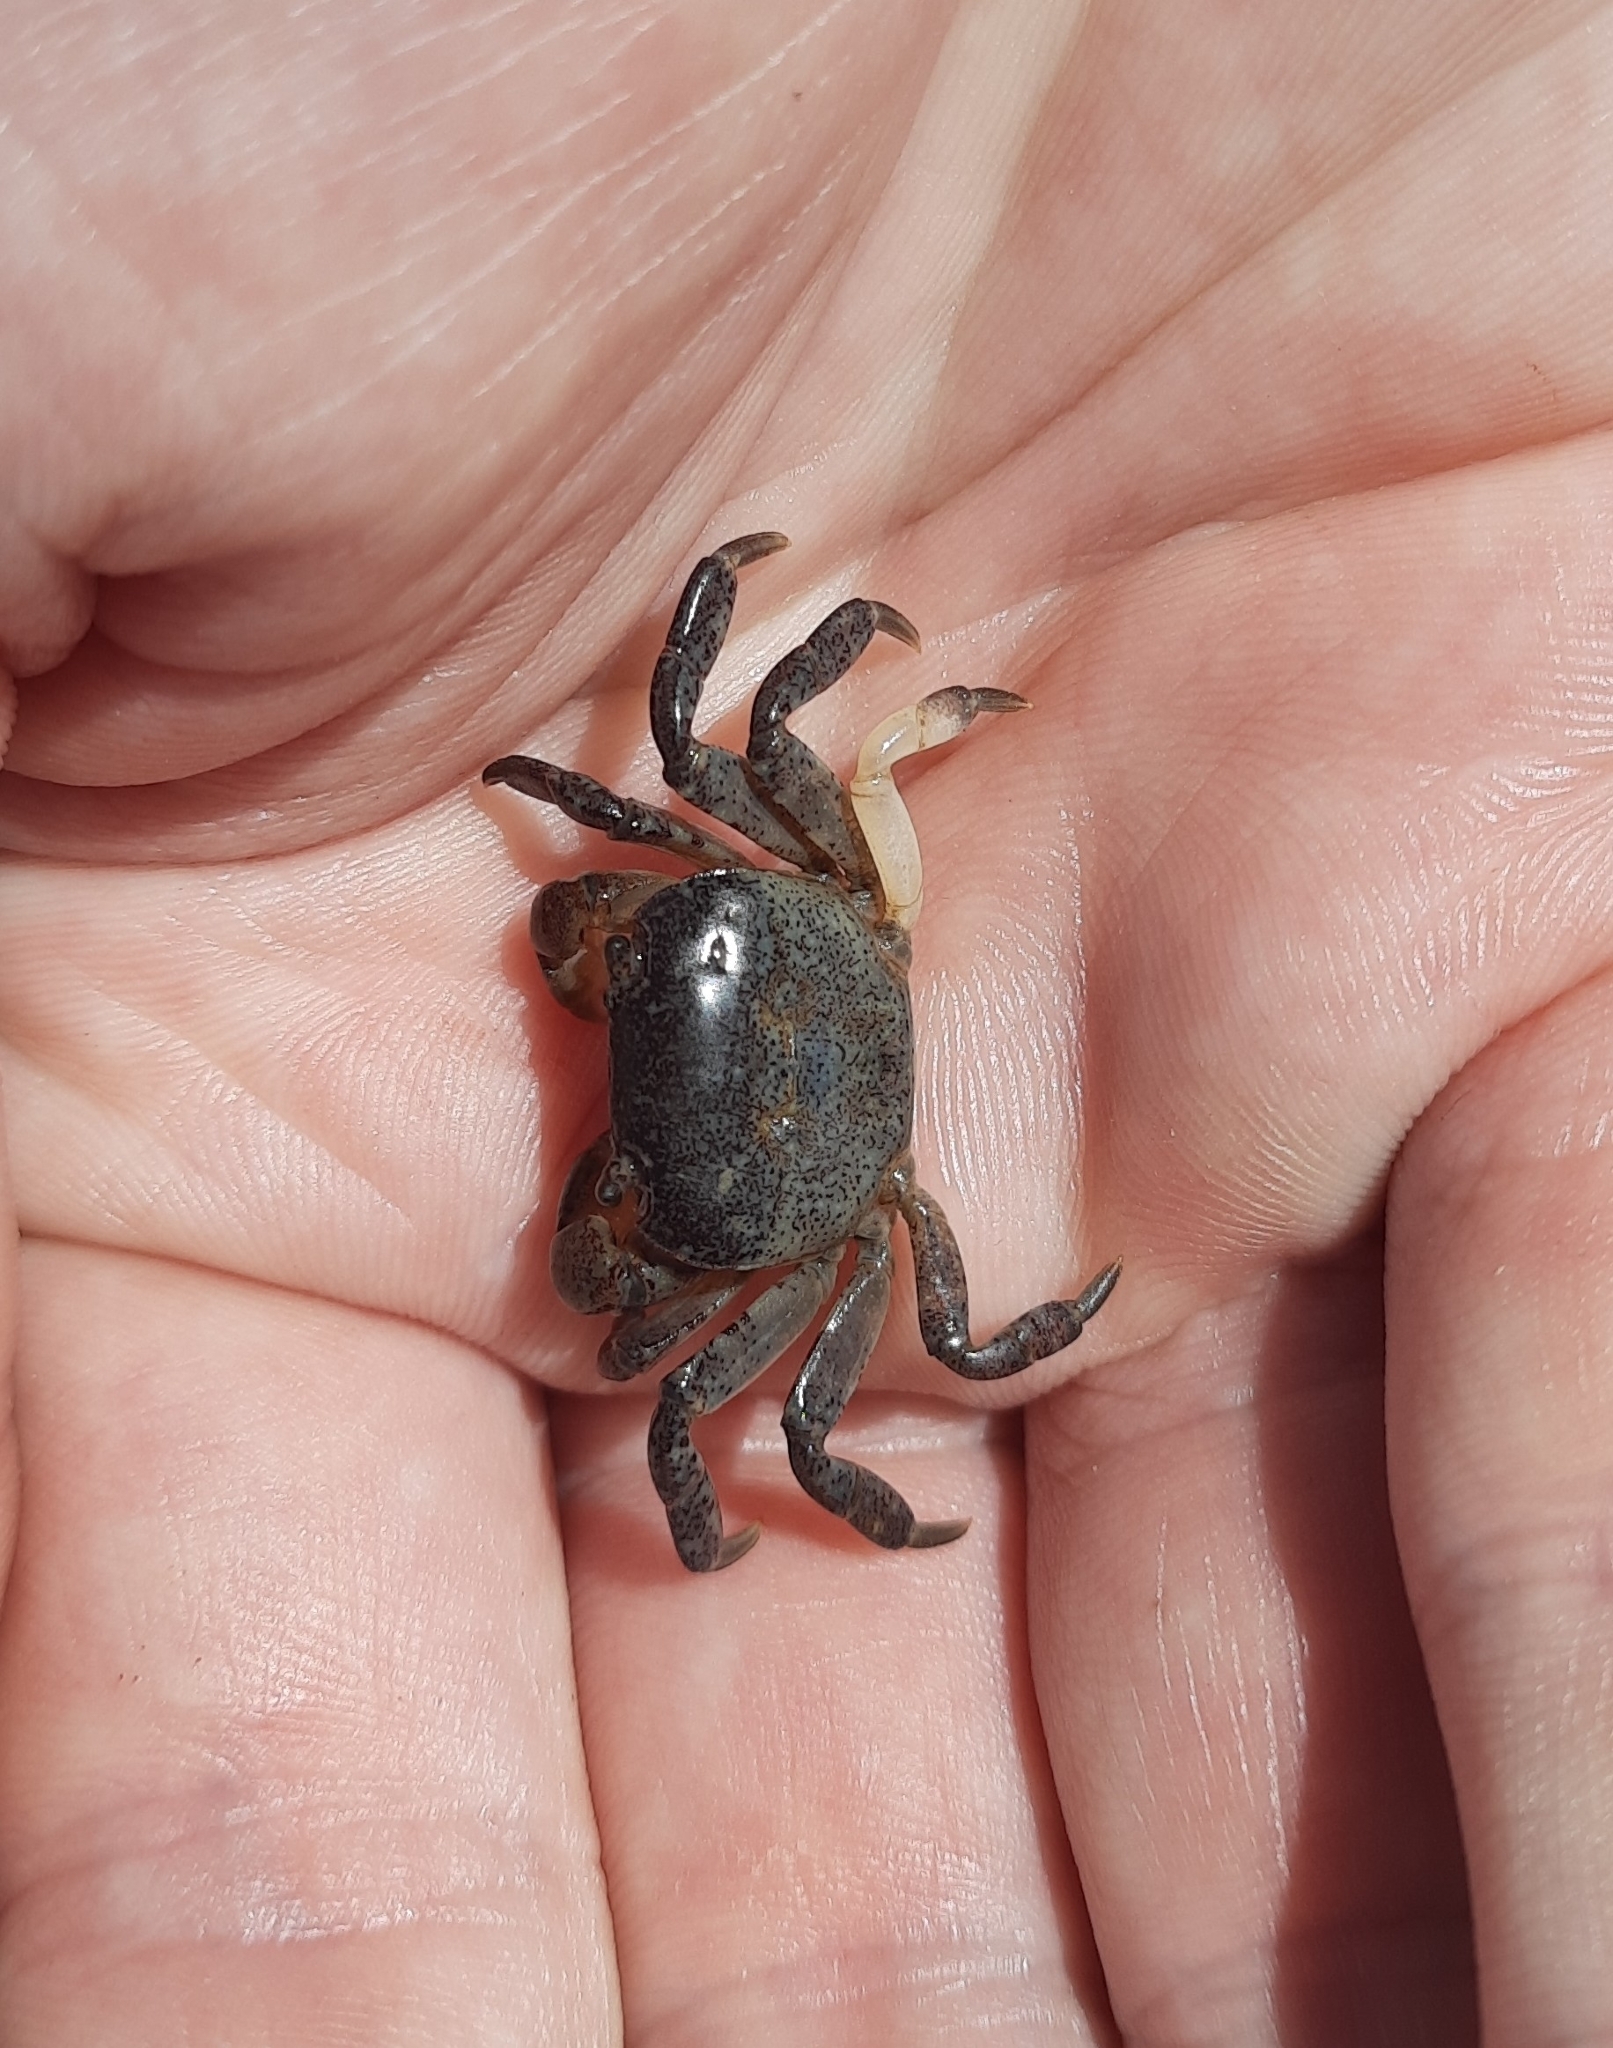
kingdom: Animalia
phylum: Arthropoda
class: Malacostraca
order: Decapoda
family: Varunidae
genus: Cyclograpsus
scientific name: Cyclograpsus lavauxi
